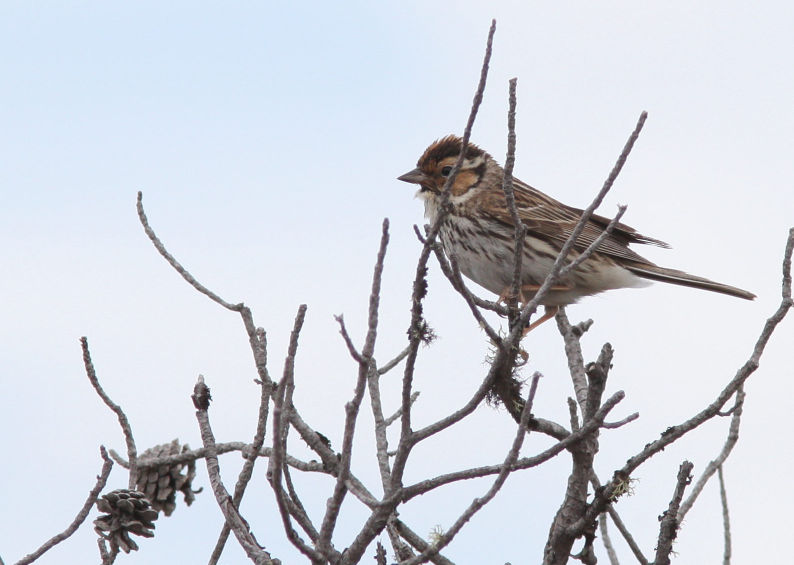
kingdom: Animalia
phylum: Chordata
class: Aves
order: Passeriformes
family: Emberizidae
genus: Emberiza
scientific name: Emberiza pusilla
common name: Little bunting
